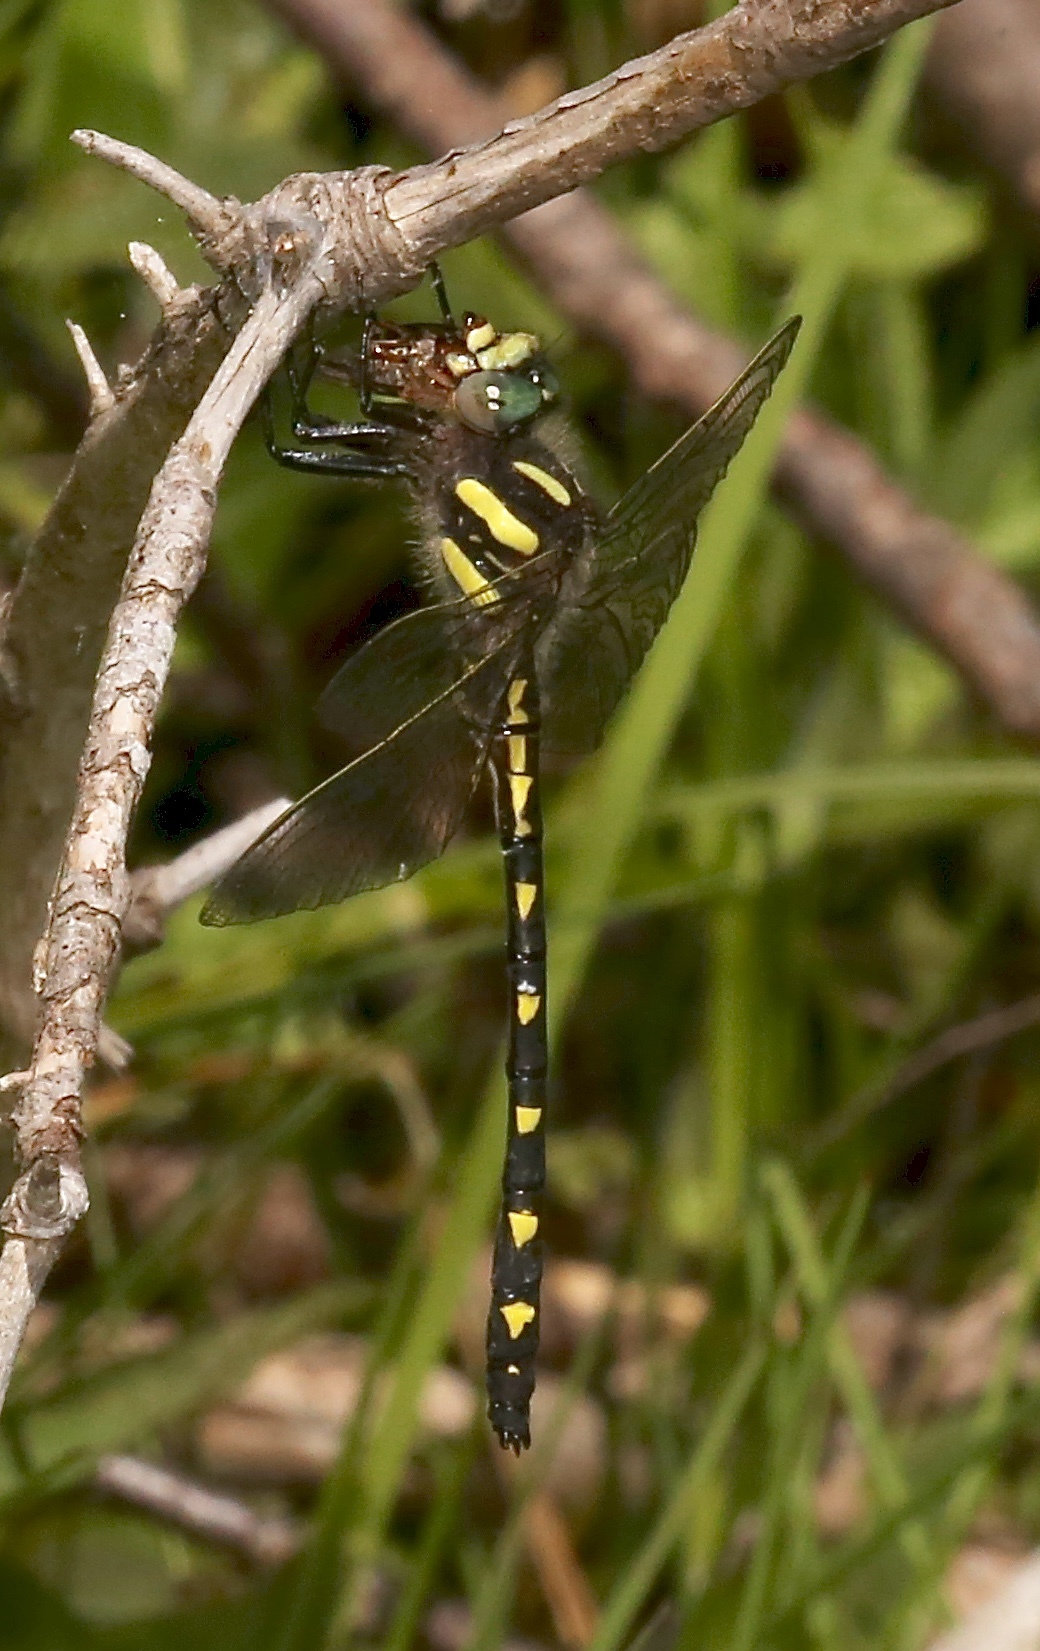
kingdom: Animalia
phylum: Arthropoda
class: Insecta
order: Odonata
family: Cordulegastridae
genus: Cordulegaster
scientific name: Cordulegaster diastatops
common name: Delta-spotted spiketail
